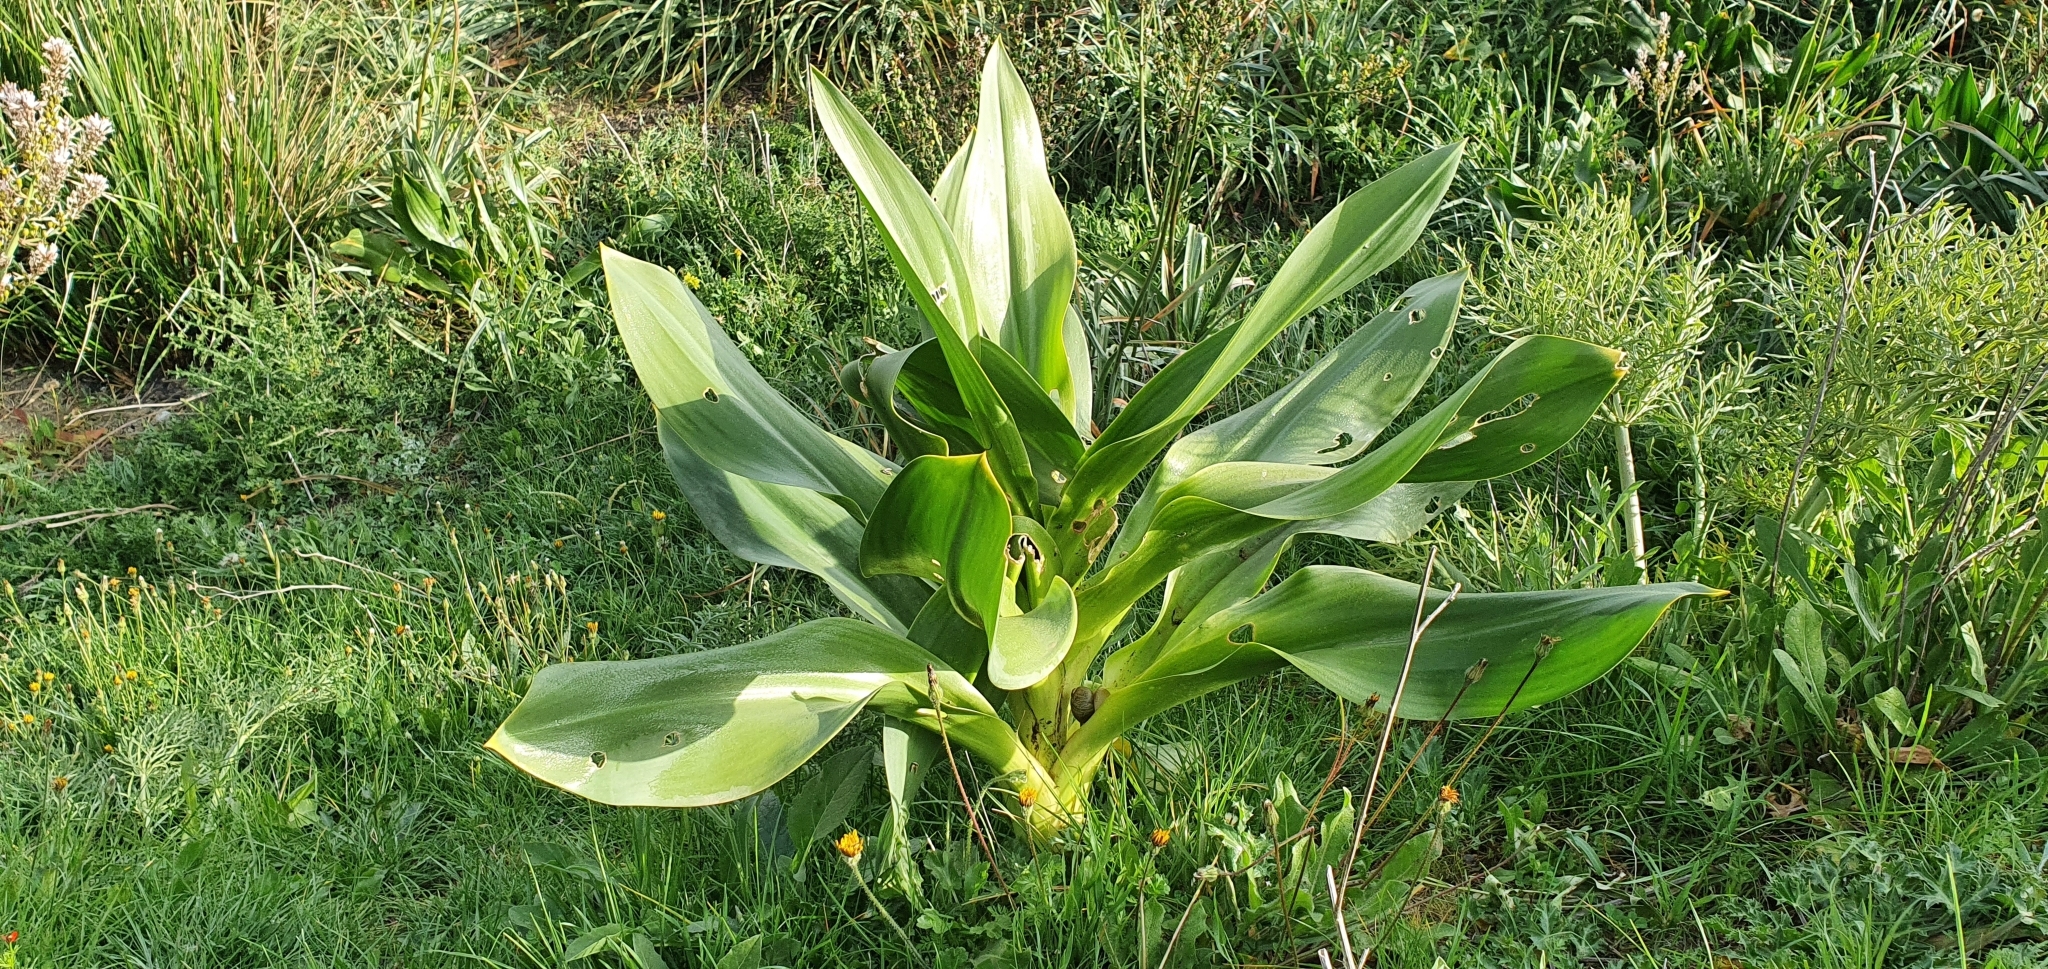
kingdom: Plantae
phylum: Tracheophyta
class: Liliopsida
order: Asparagales
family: Asparagaceae
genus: Drimia
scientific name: Drimia numidica
